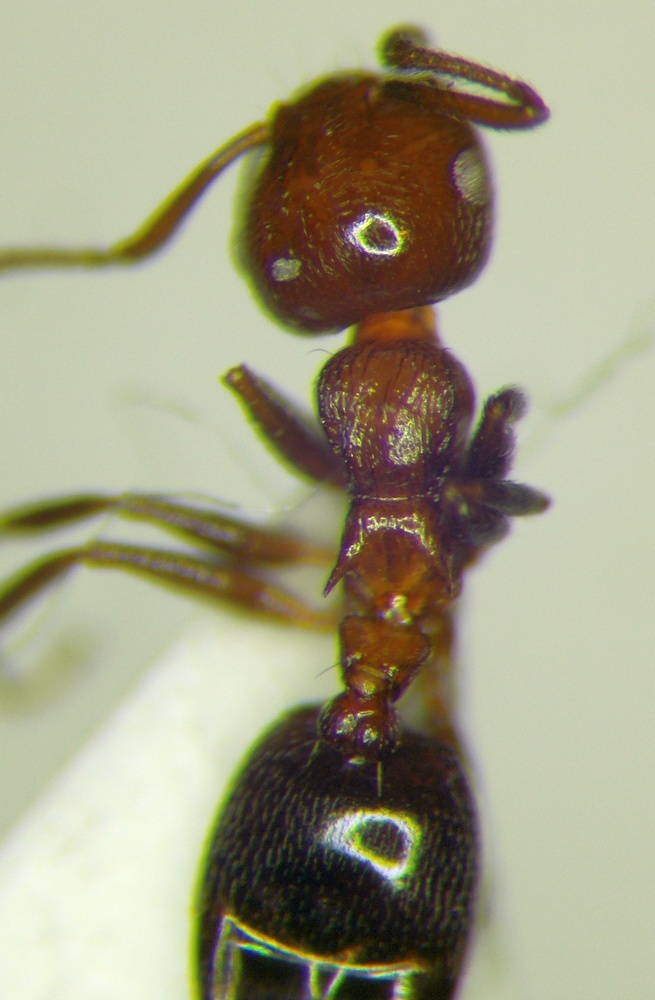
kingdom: Animalia
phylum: Arthropoda
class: Insecta
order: Hymenoptera
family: Formicidae
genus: Crematogaster
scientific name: Crematogaster schmidti
